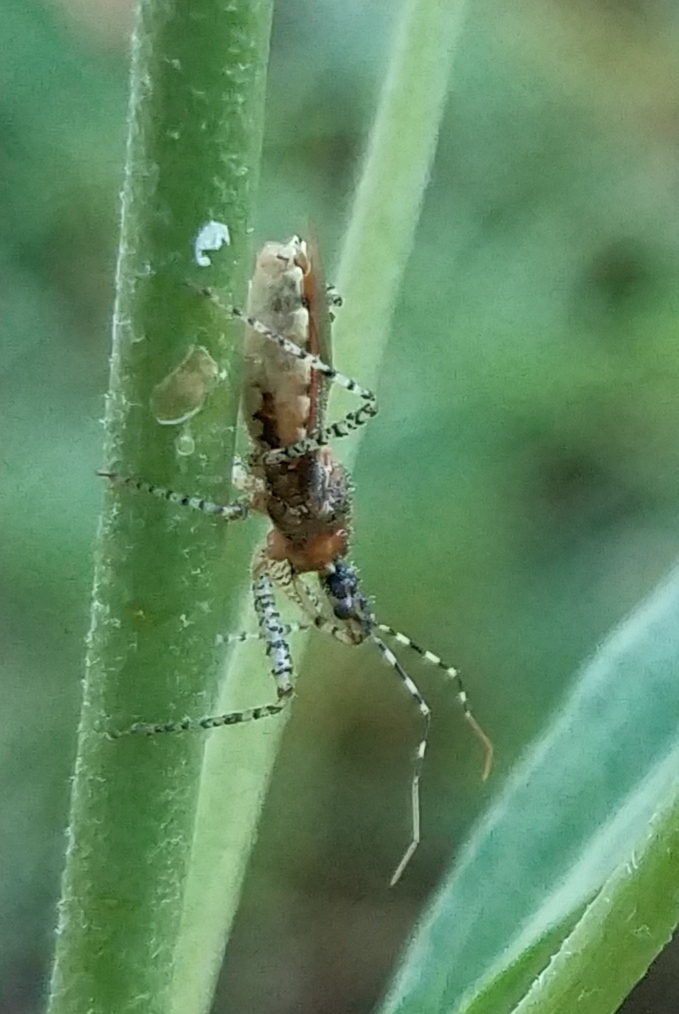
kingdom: Animalia
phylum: Arthropoda
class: Insecta
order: Hemiptera
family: Reduviidae
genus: Pselliopus
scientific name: Pselliopus spinicollis
